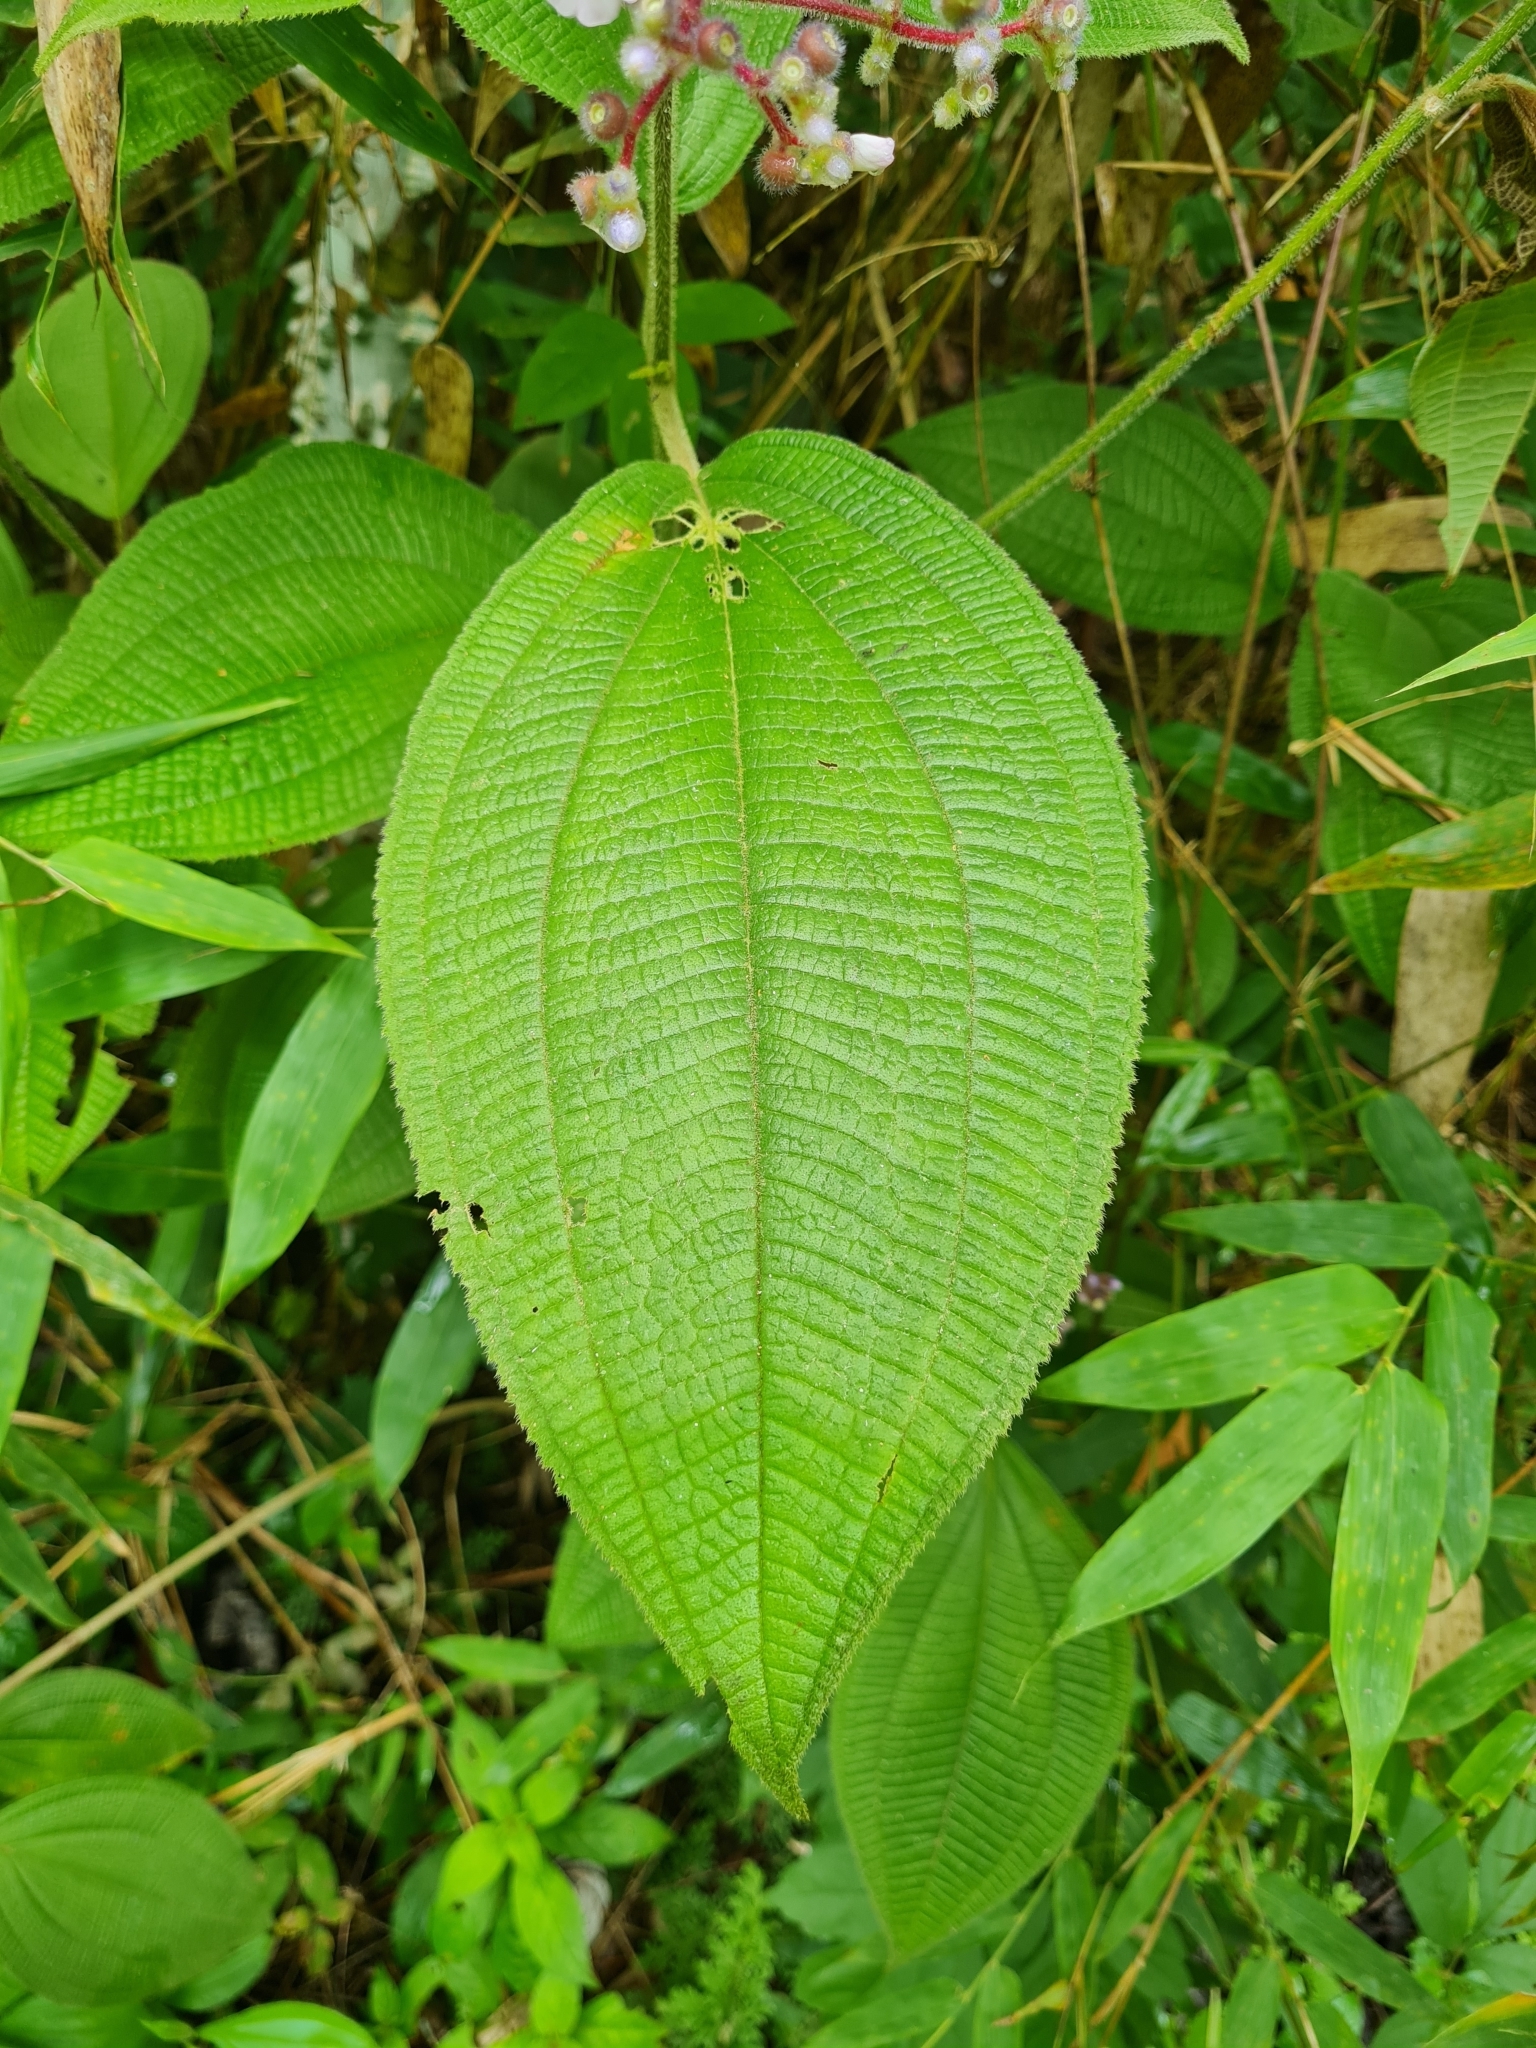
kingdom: Plantae
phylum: Tracheophyta
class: Magnoliopsida
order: Myrtales
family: Melastomataceae
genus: Miconia
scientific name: Miconia conospeciosa
